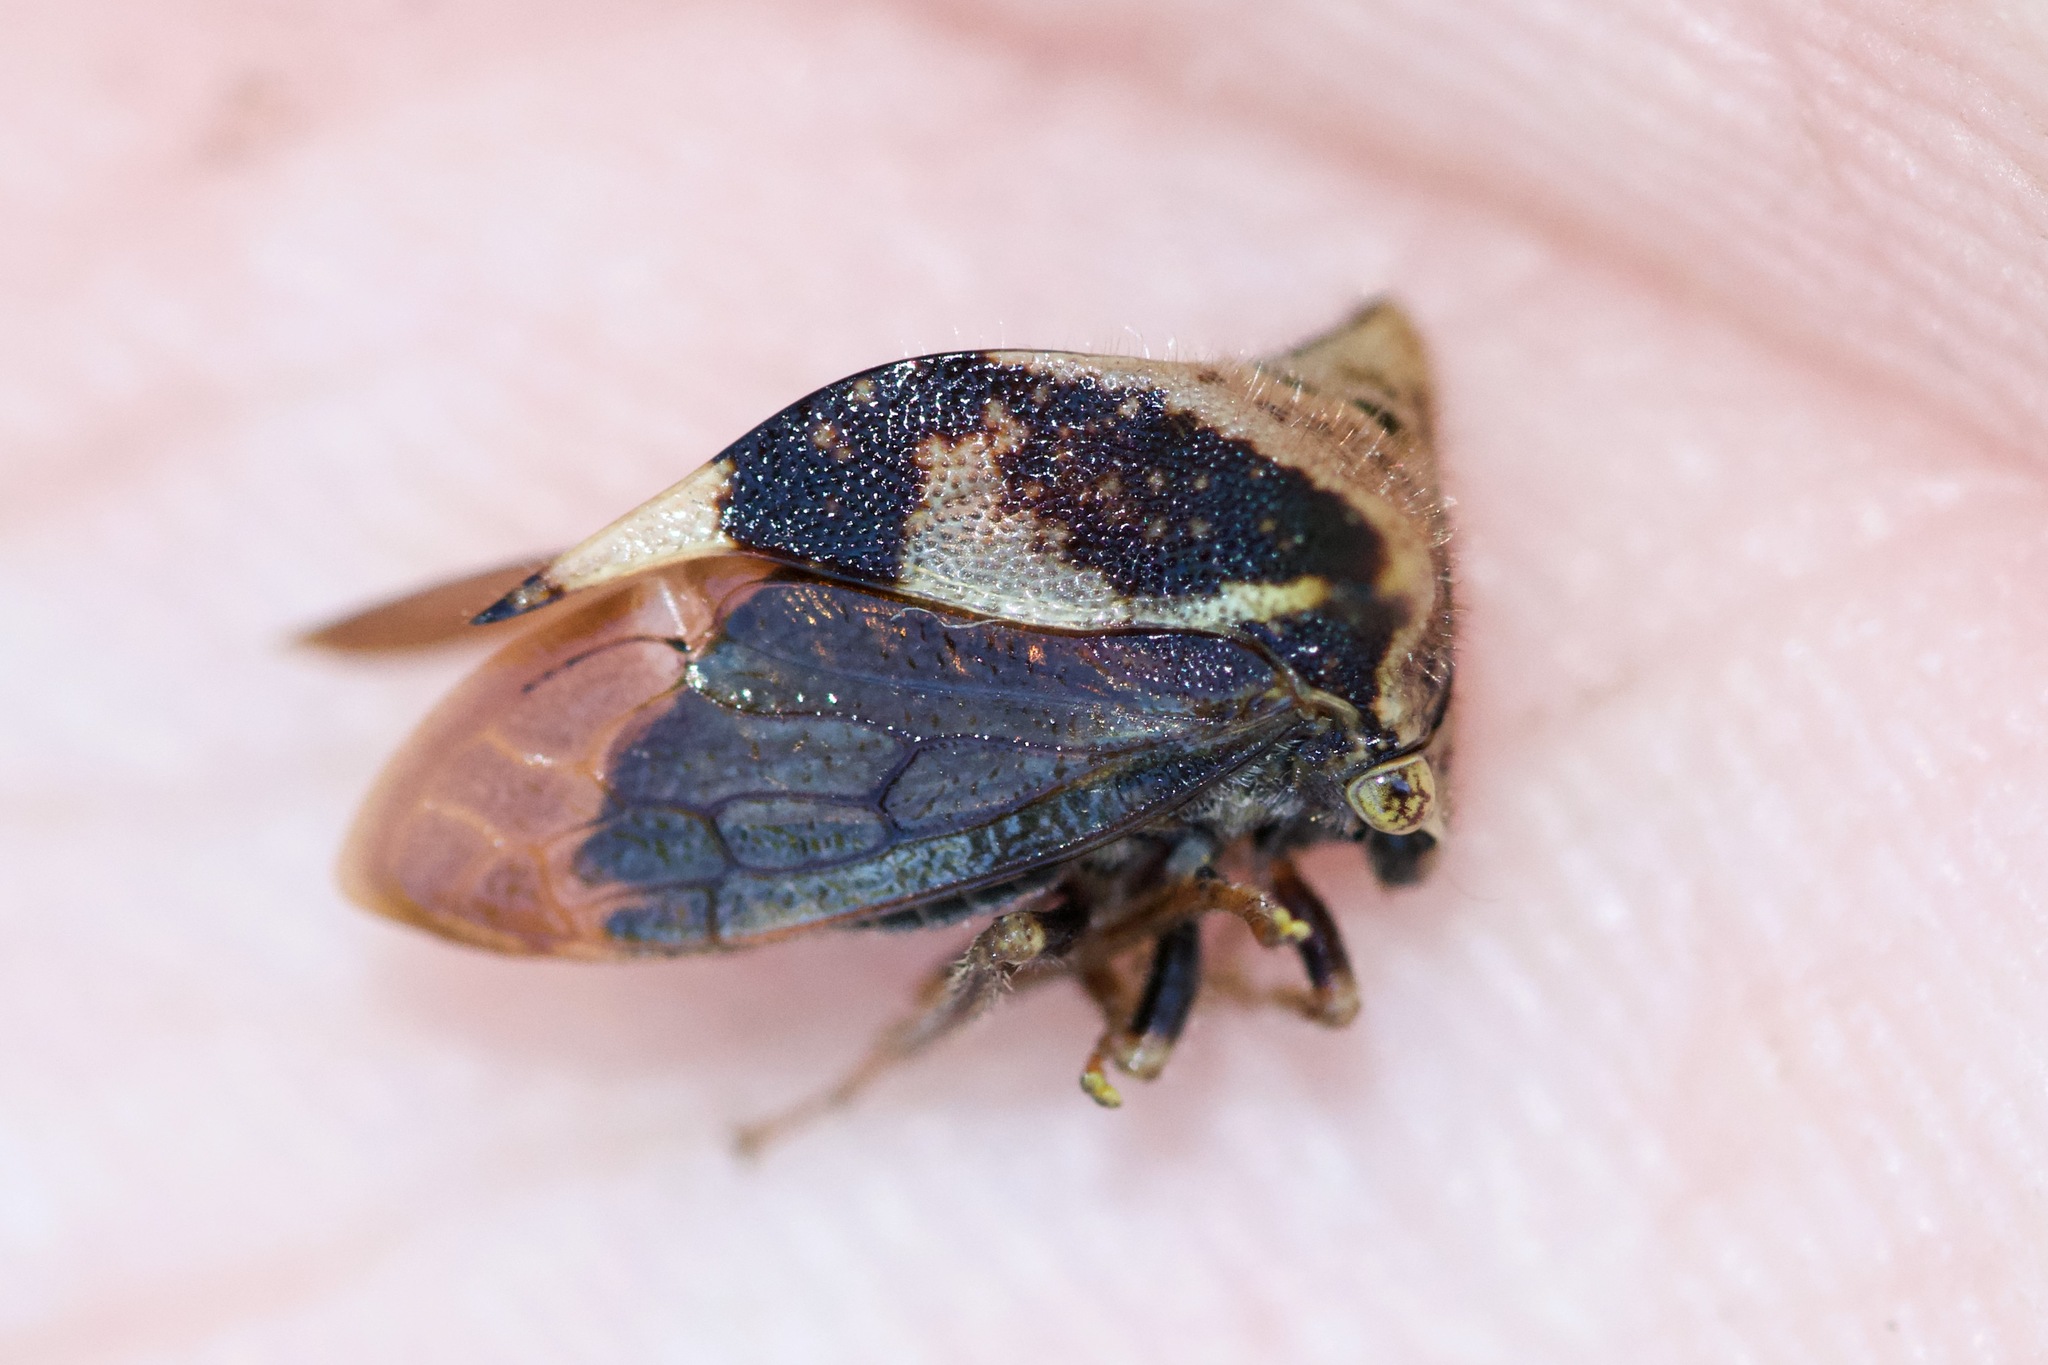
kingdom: Animalia
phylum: Arthropoda
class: Insecta
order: Hemiptera
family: Membracidae
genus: Stictocephala
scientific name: Stictocephala diceros
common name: Two-horned treehopper
